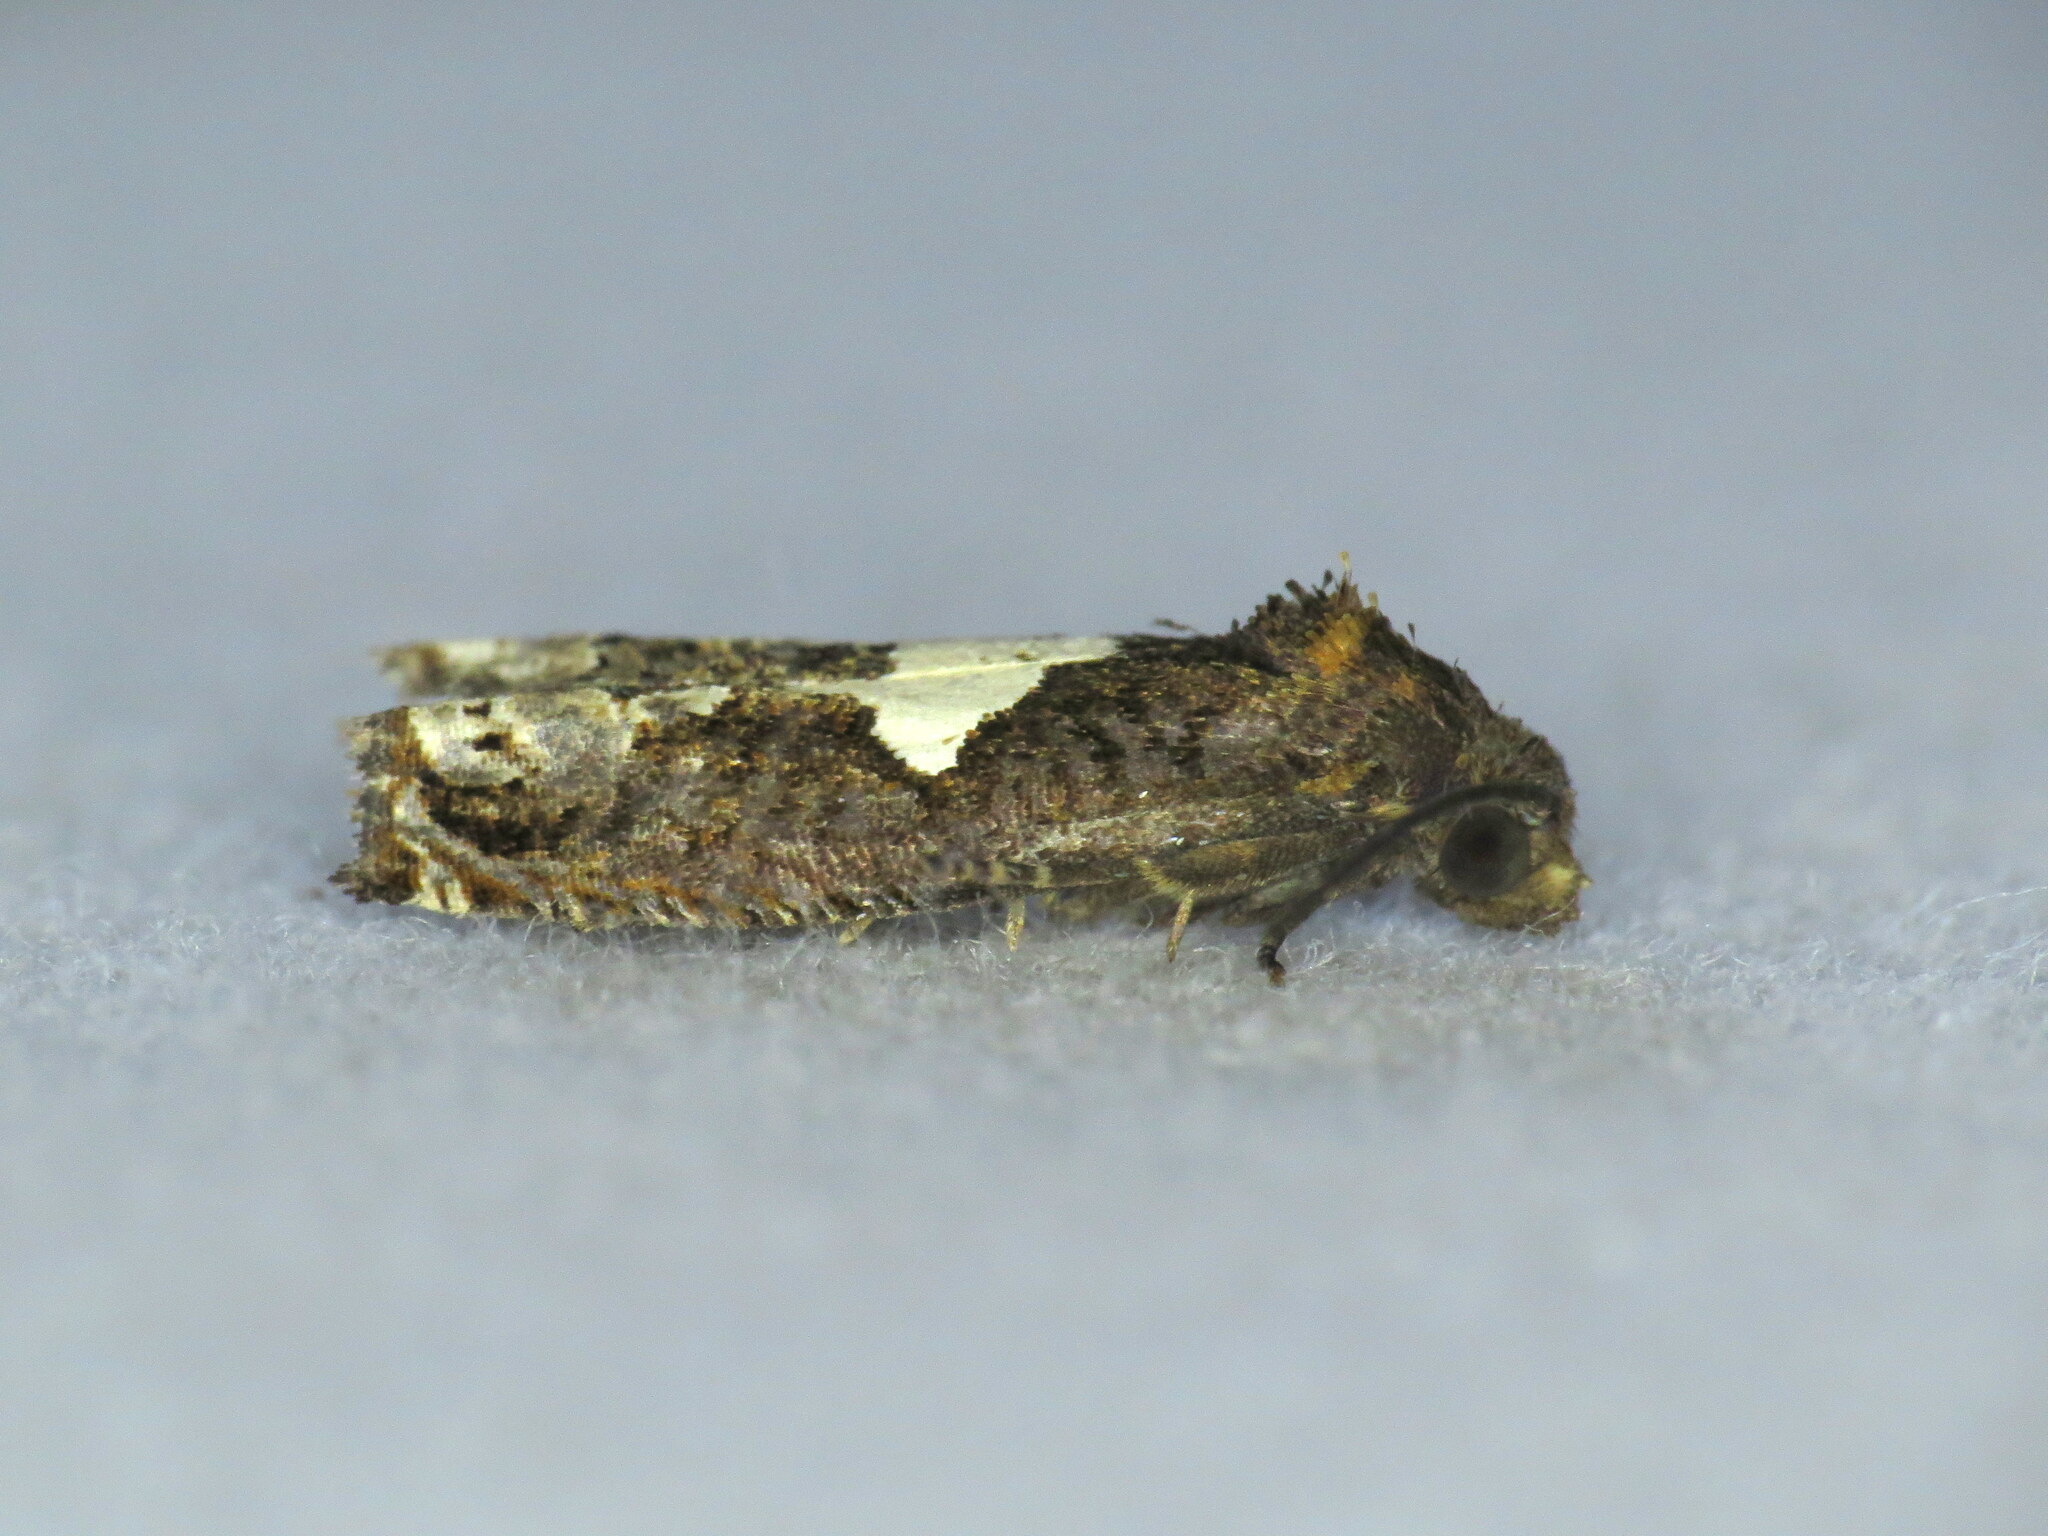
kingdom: Animalia
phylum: Arthropoda
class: Insecta
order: Lepidoptera
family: Tortricidae
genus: Epiblema
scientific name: Epiblema otiosana
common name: Bidens borer moth
